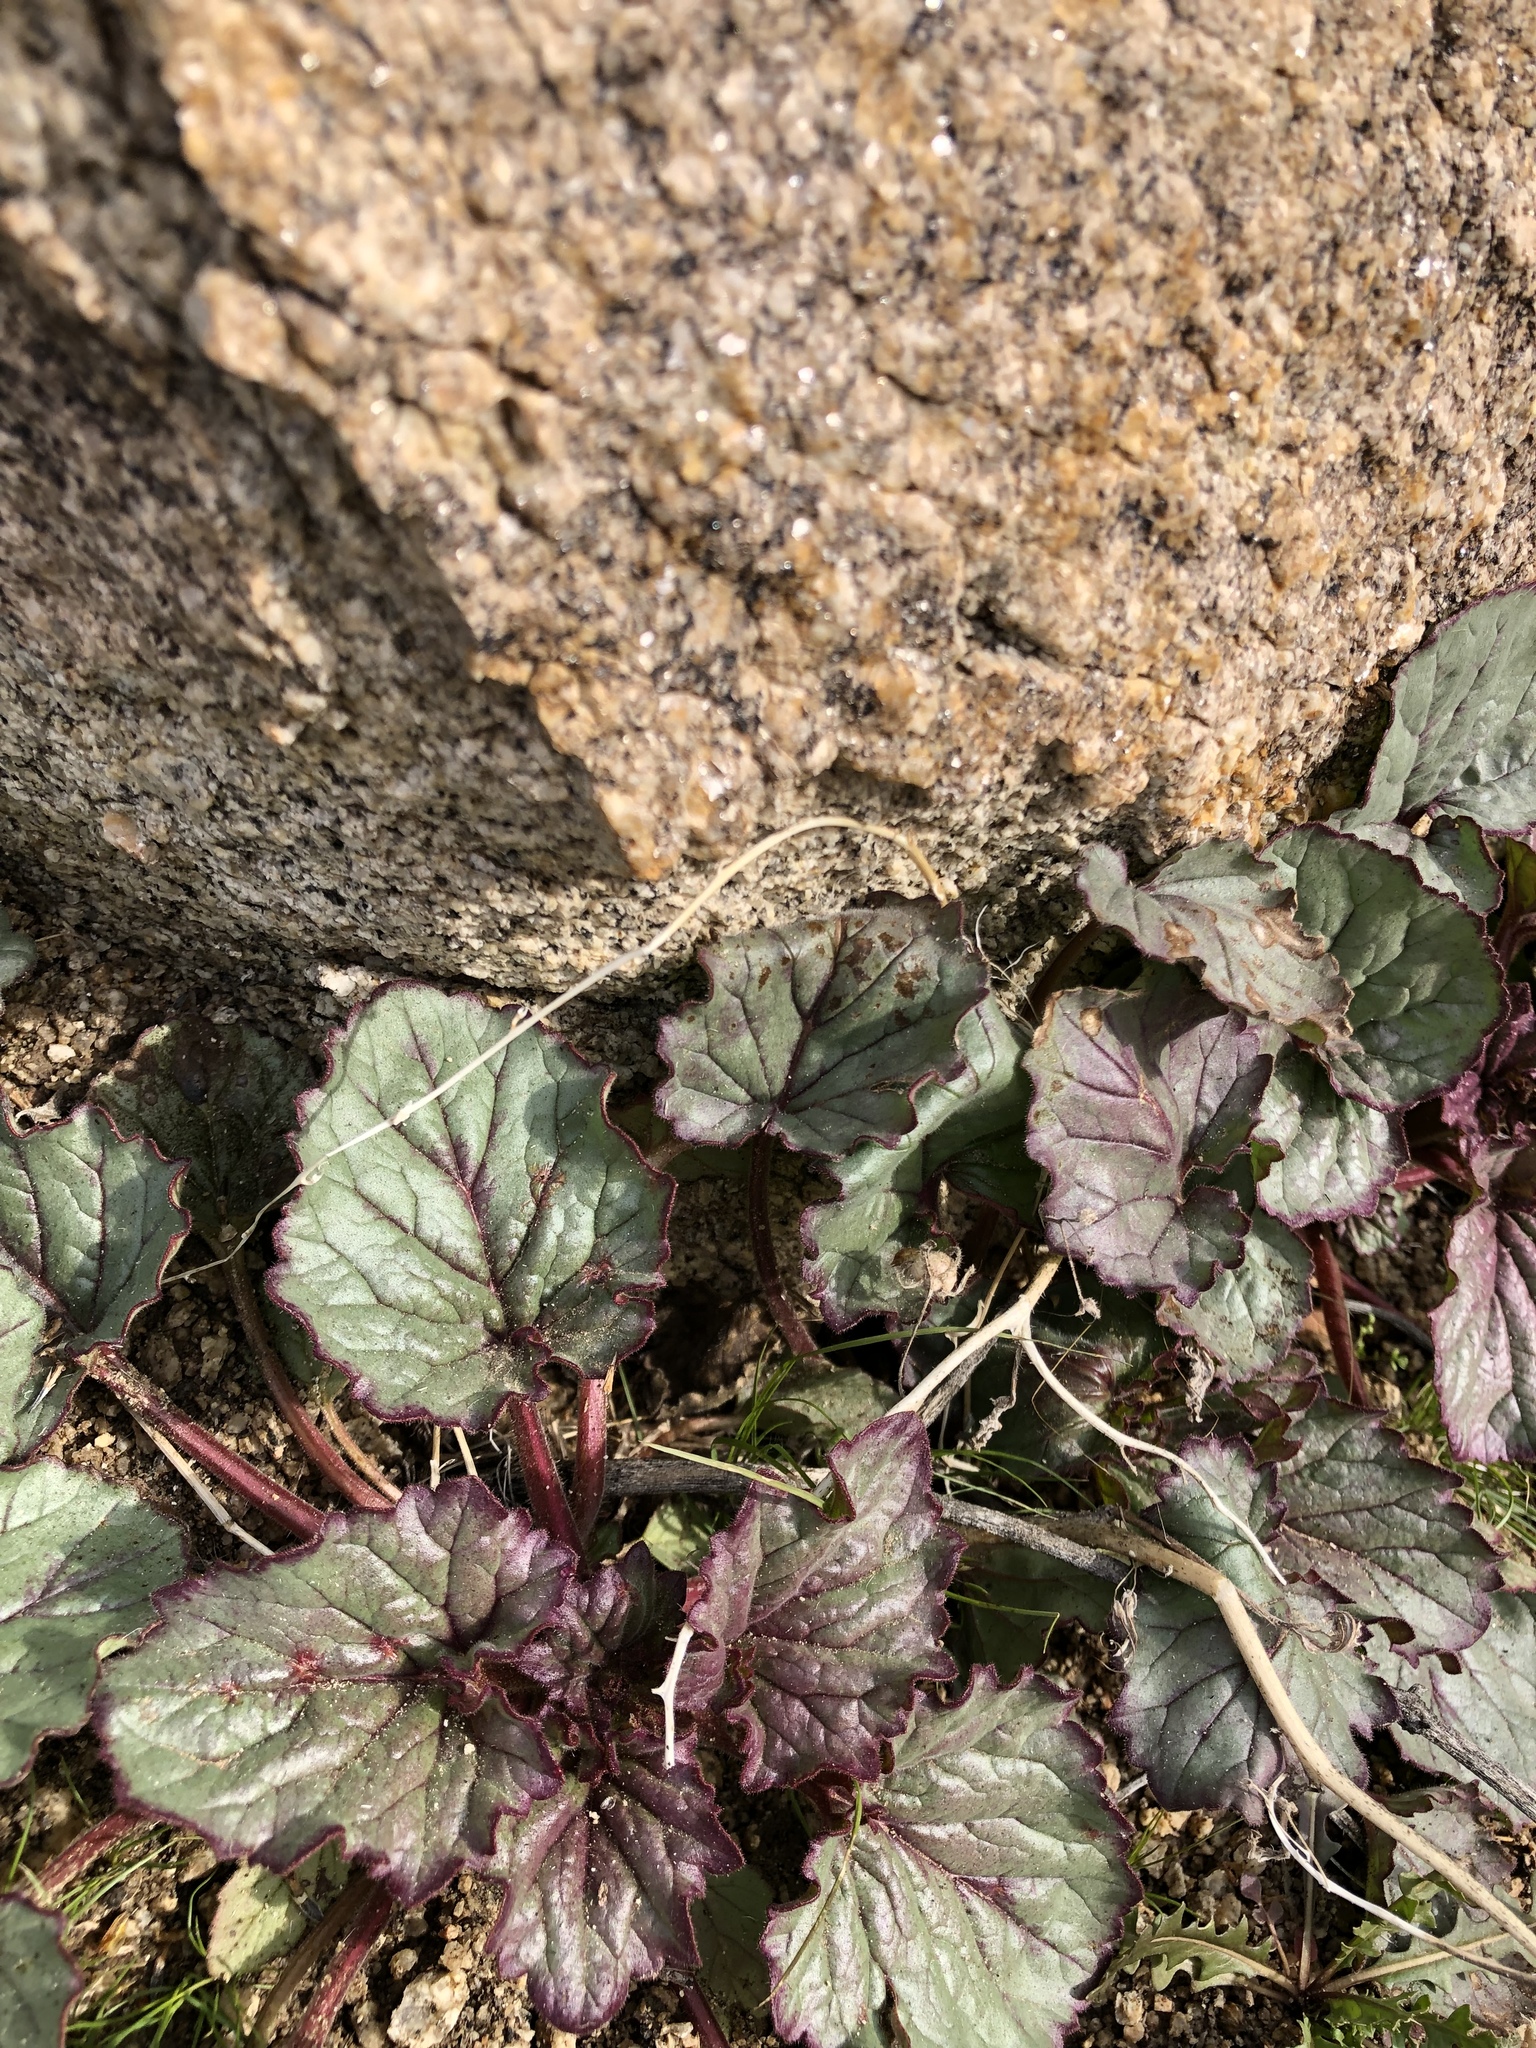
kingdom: Plantae
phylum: Tracheophyta
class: Magnoliopsida
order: Boraginales
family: Hydrophyllaceae
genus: Phacelia
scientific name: Phacelia campanularia
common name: California bluebell
